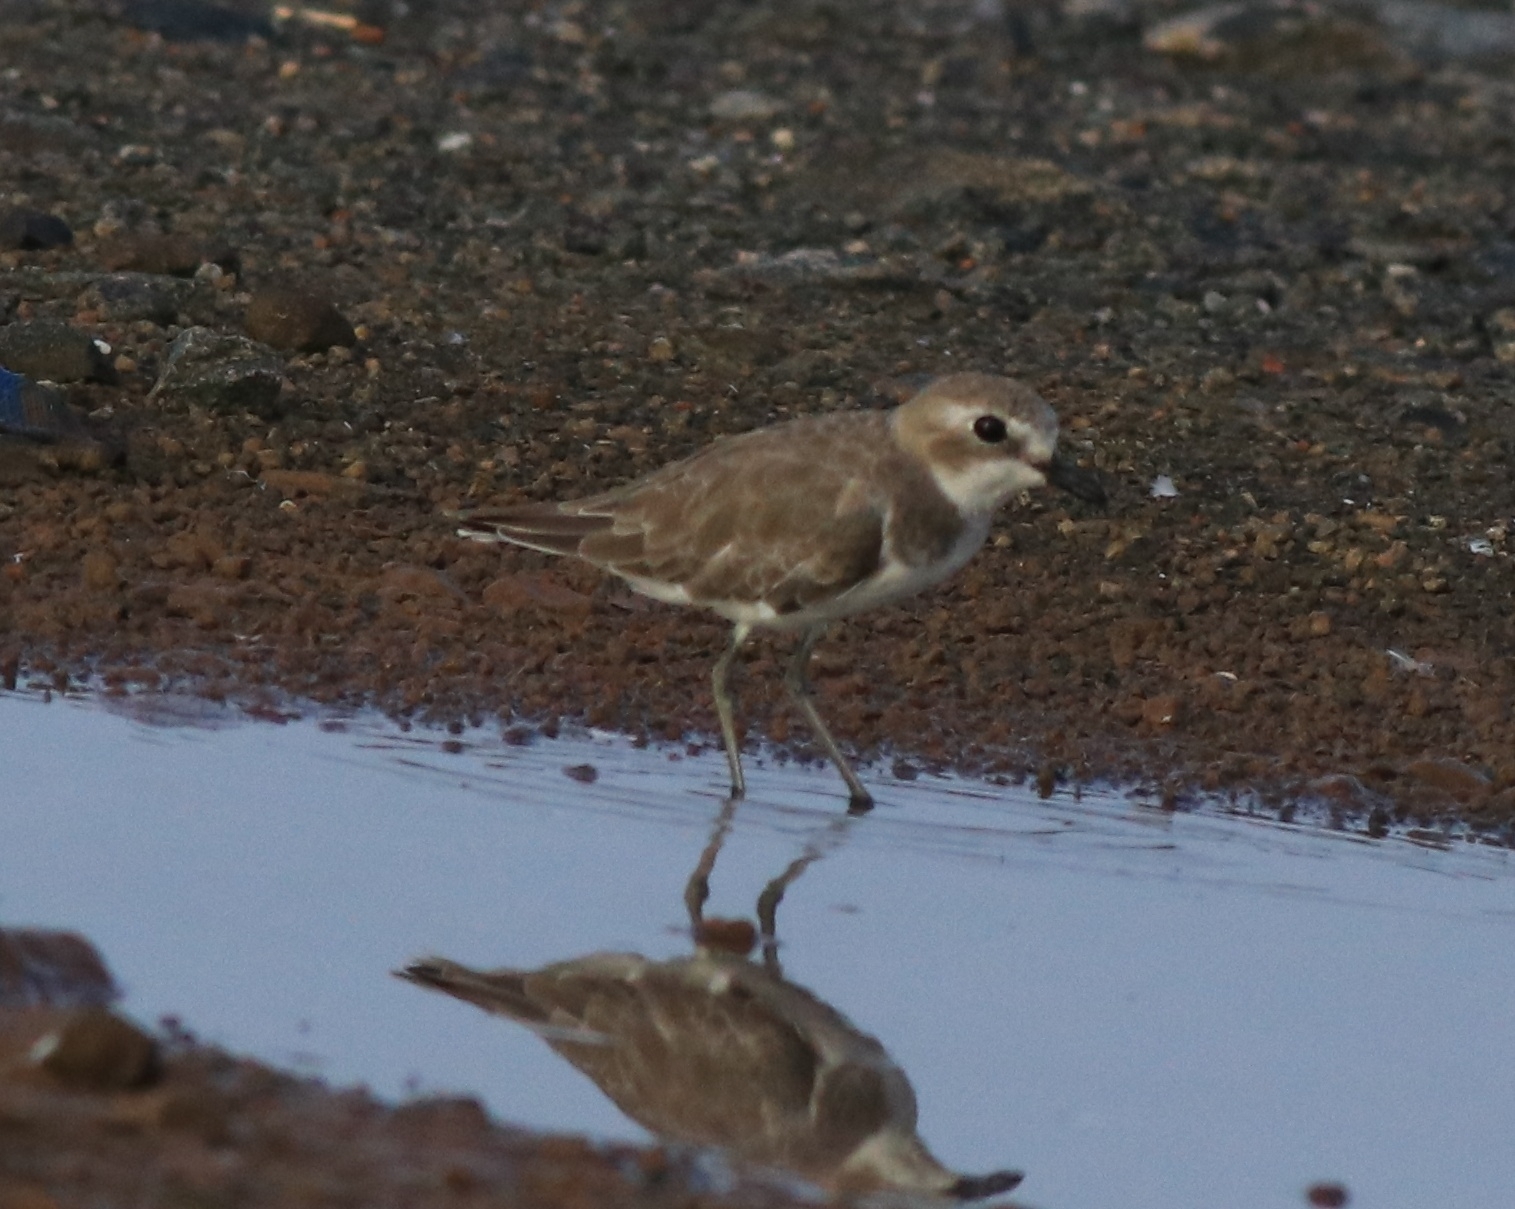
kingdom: Animalia
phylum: Chordata
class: Aves
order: Charadriiformes
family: Charadriidae
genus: Anarhynchus
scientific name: Anarhynchus
